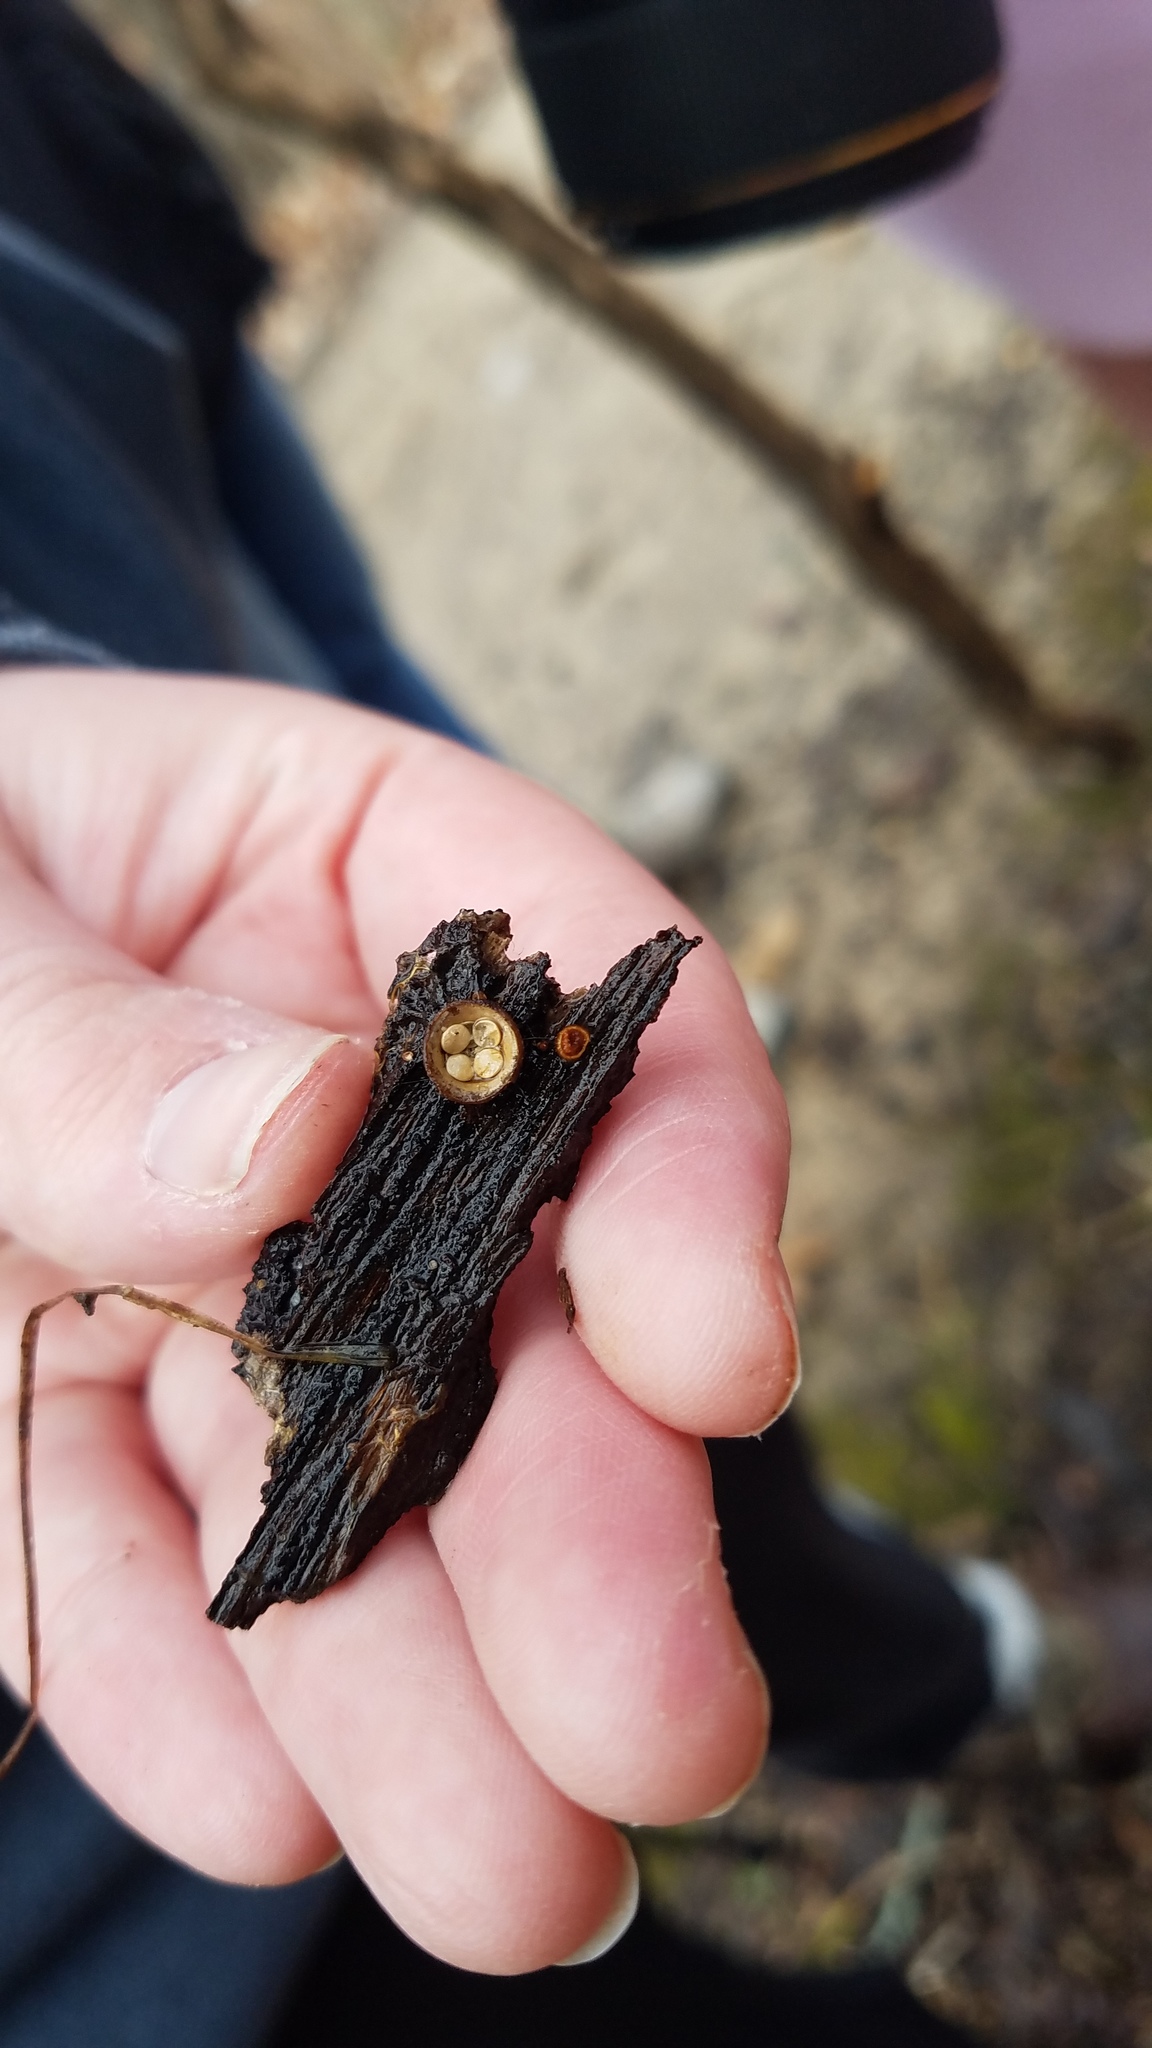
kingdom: Fungi
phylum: Basidiomycota
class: Agaricomycetes
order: Agaricales
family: Nidulariaceae
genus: Crucibulum
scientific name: Crucibulum laeve
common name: Common bird's nest
